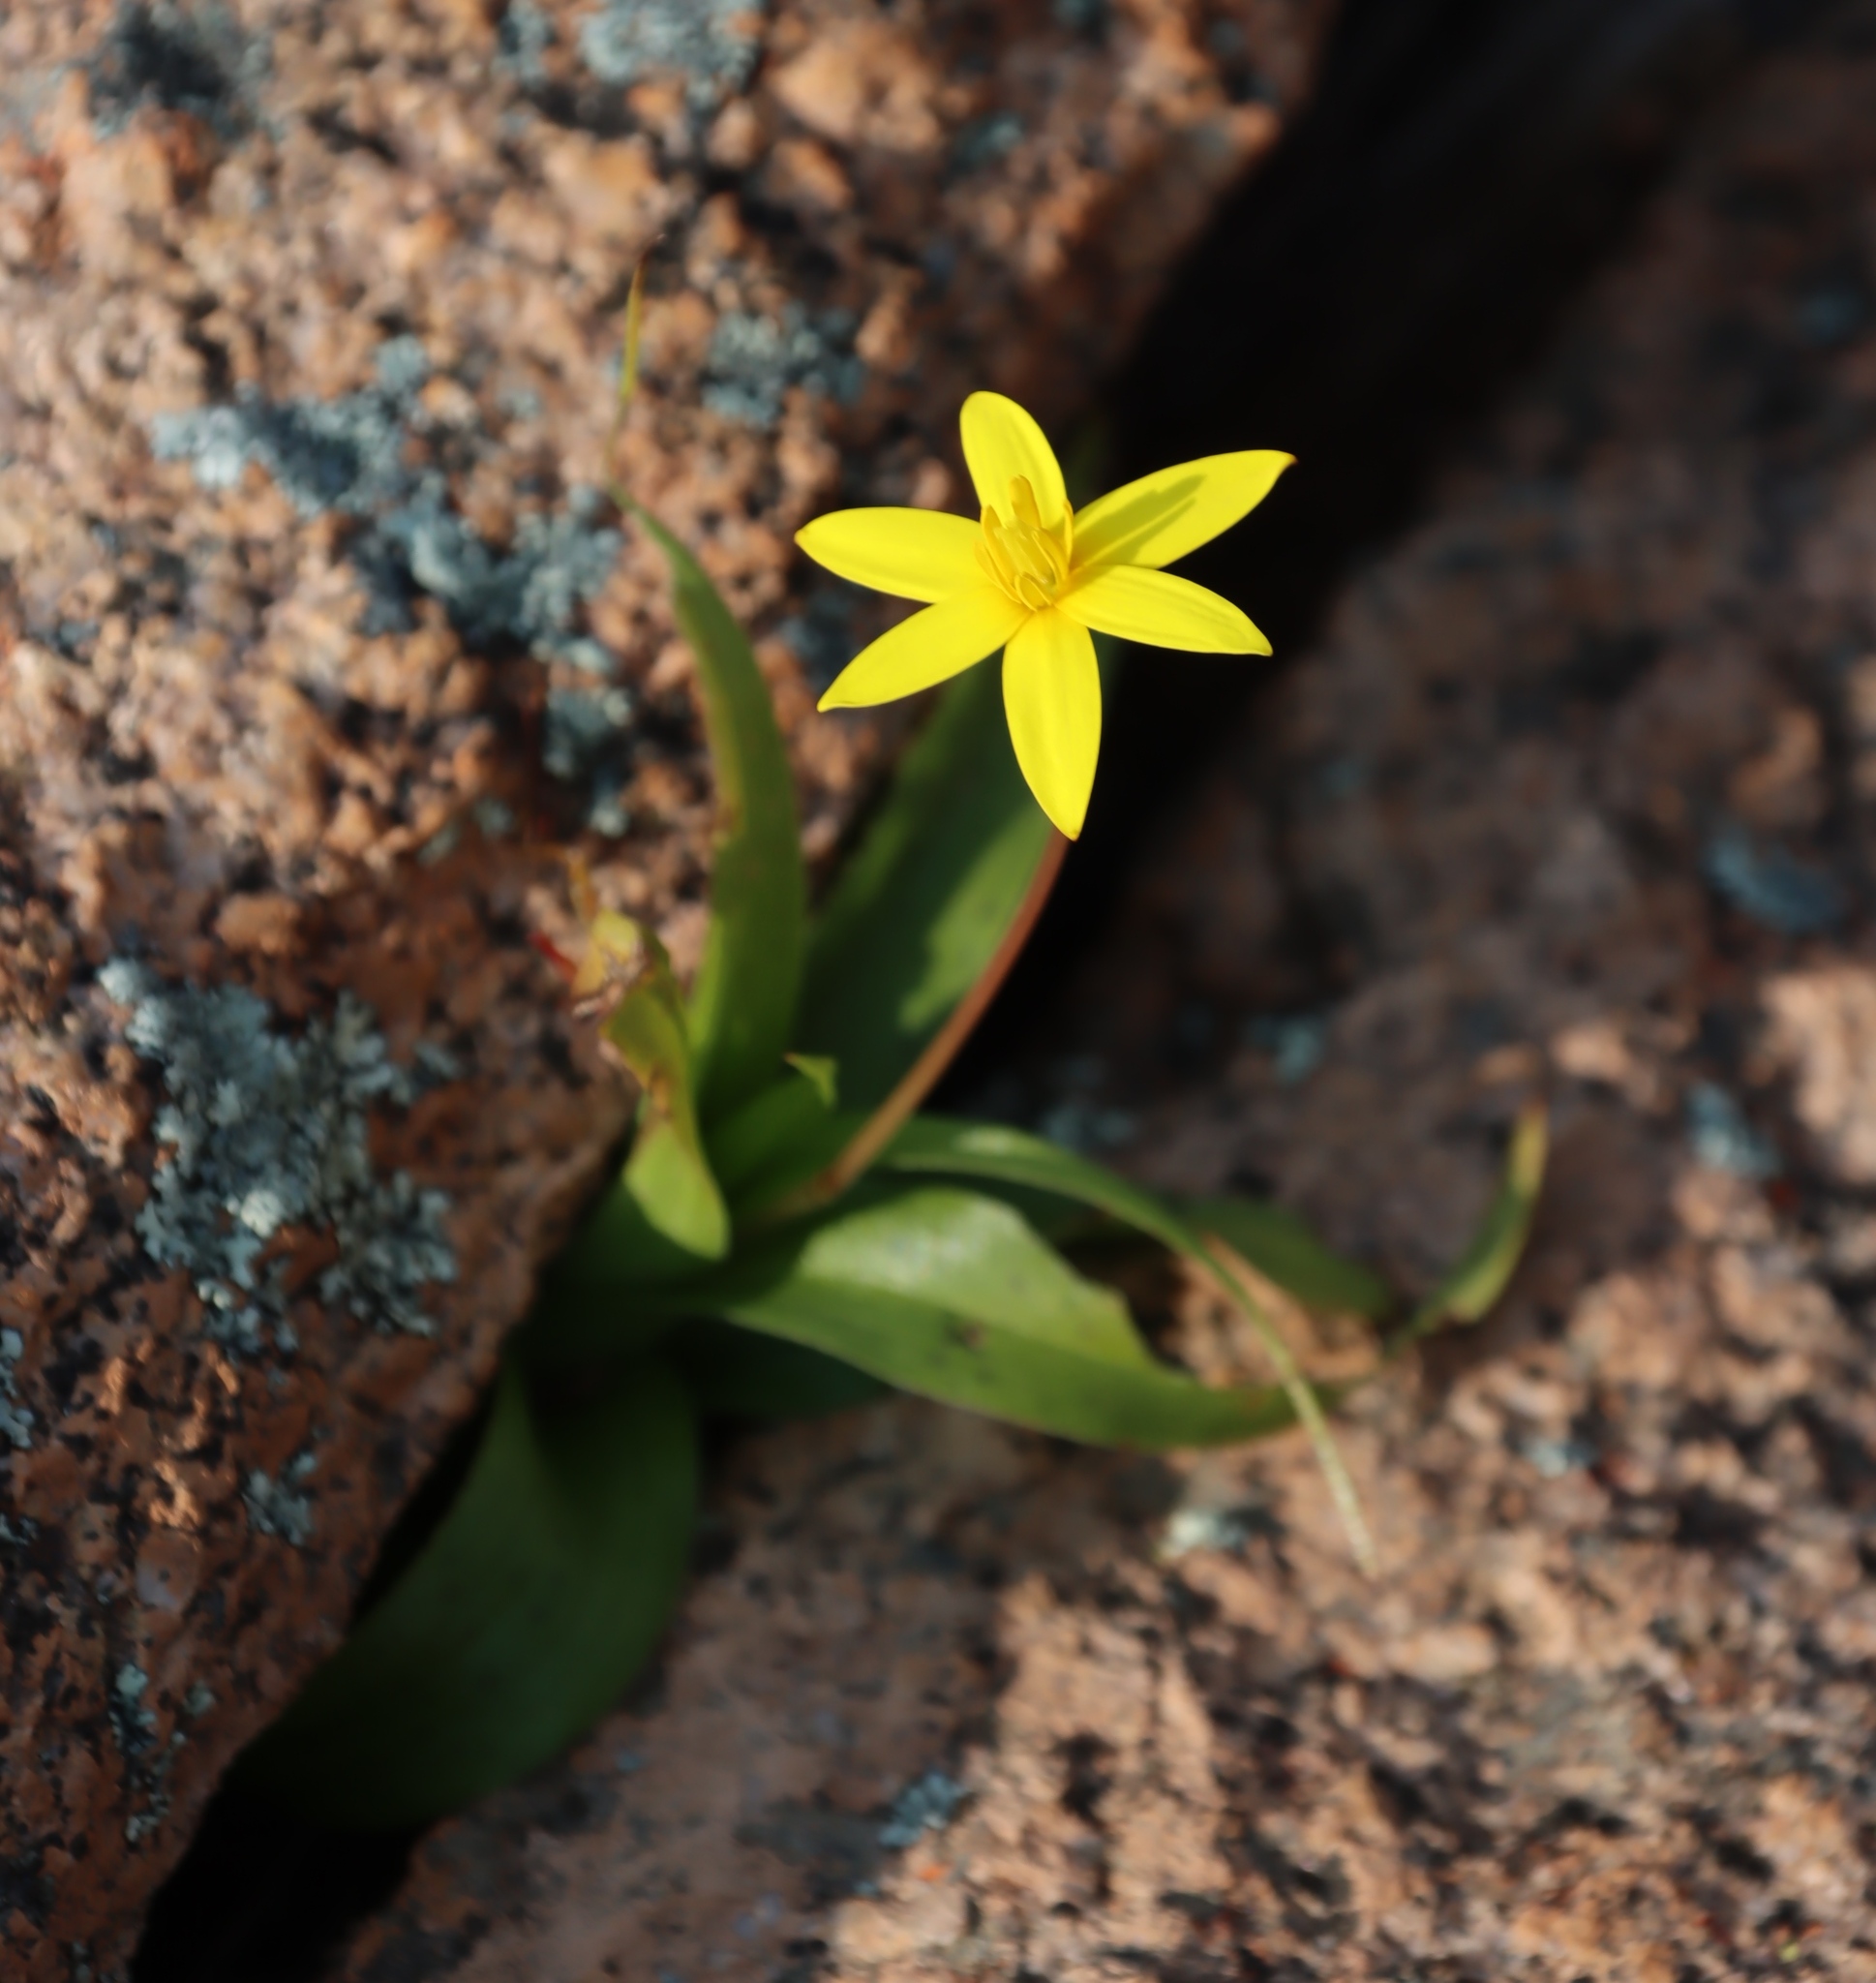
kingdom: Plantae
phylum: Tracheophyta
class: Liliopsida
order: Asparagales
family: Hypoxidaceae
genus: Pauridia
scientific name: Pauridia gracilipes
